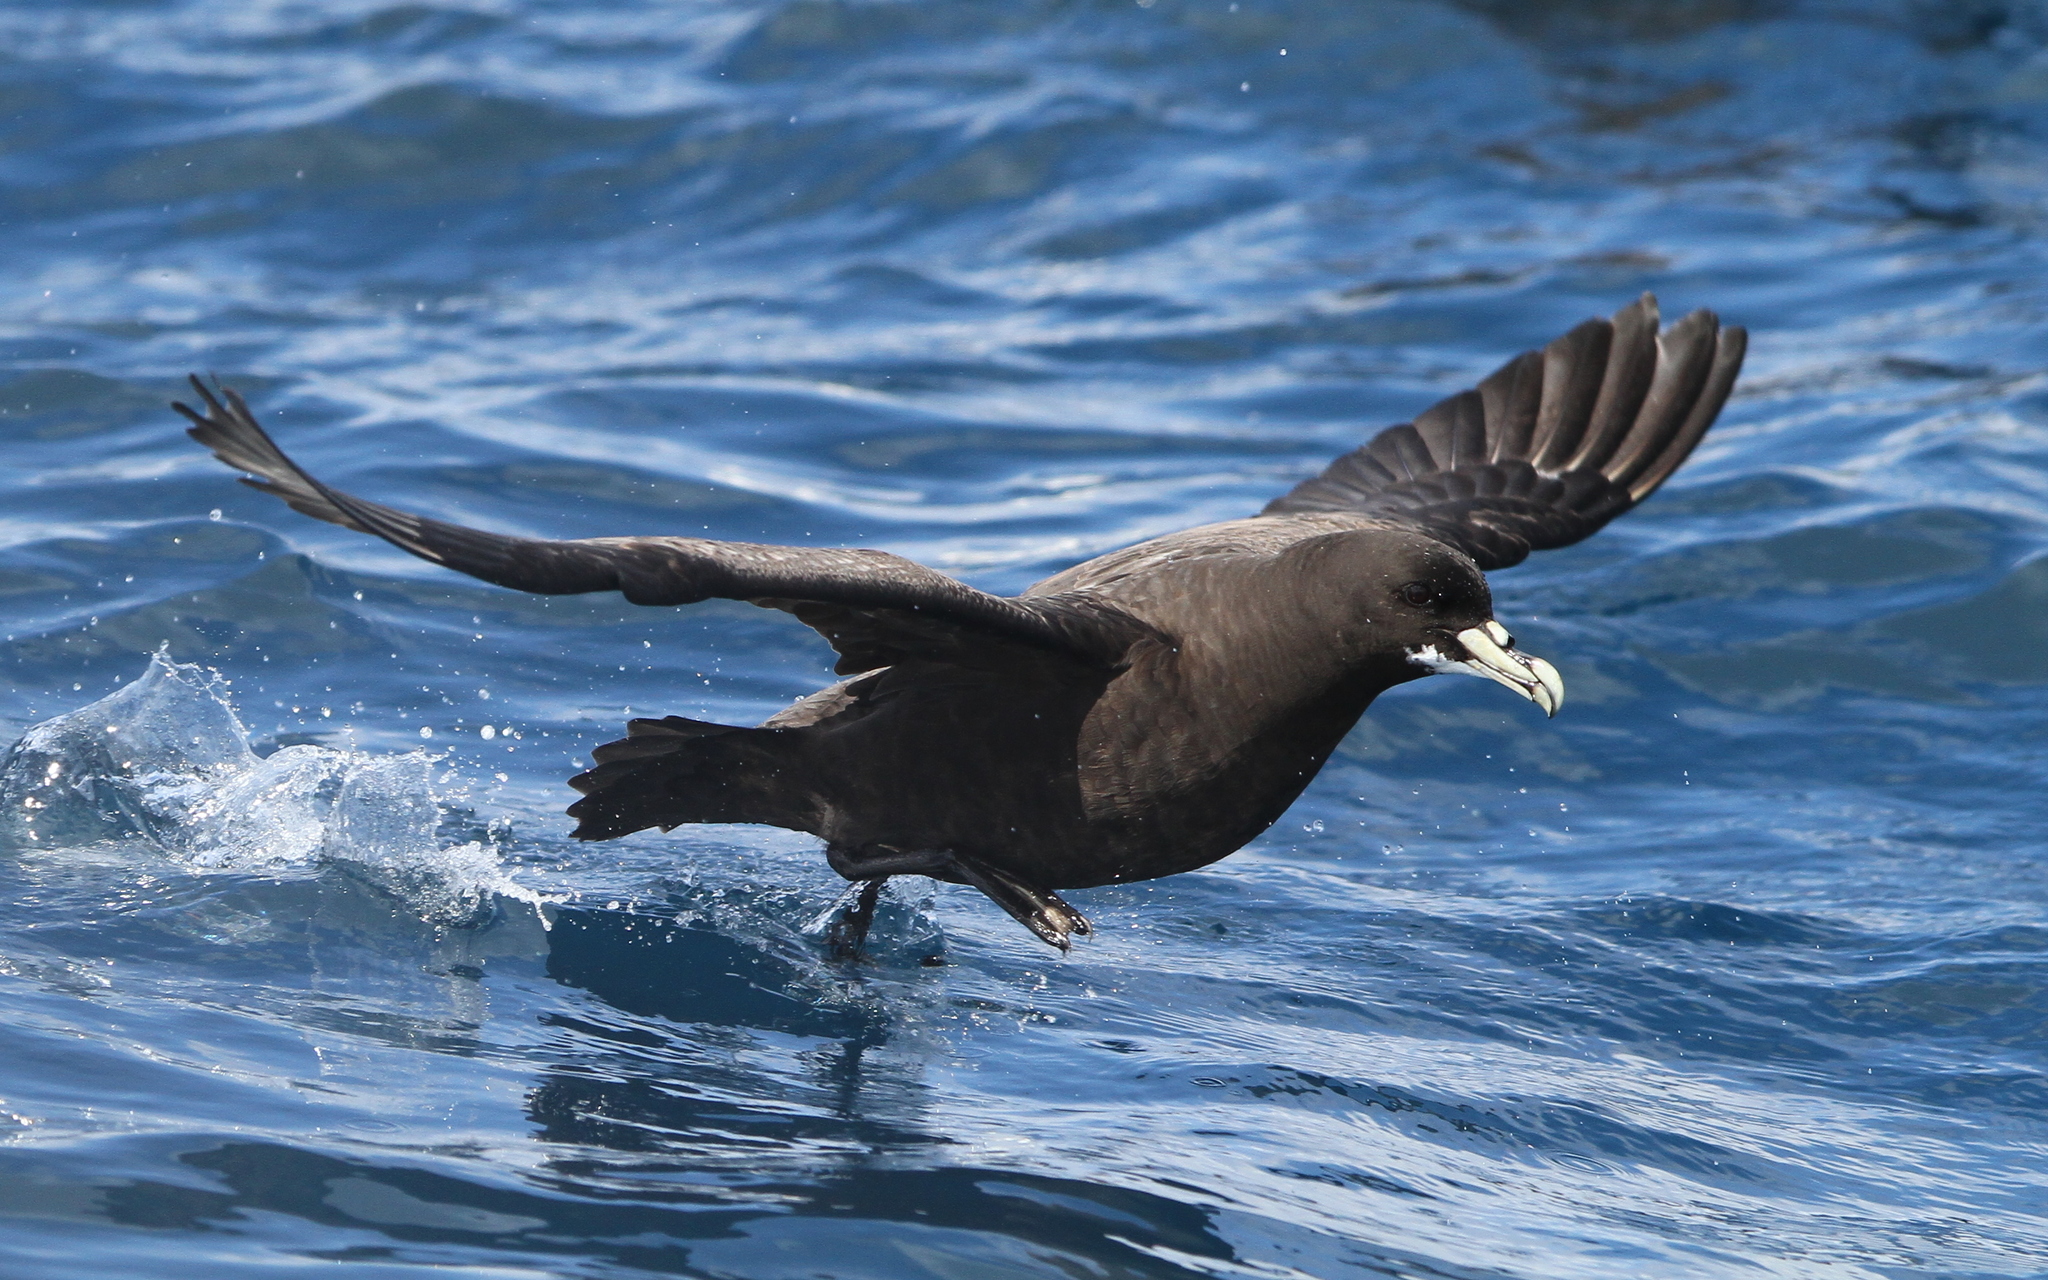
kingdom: Animalia
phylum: Chordata
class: Aves
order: Procellariiformes
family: Procellariidae
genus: Procellaria
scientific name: Procellaria aequinoctialis
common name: White-chinned petrel
